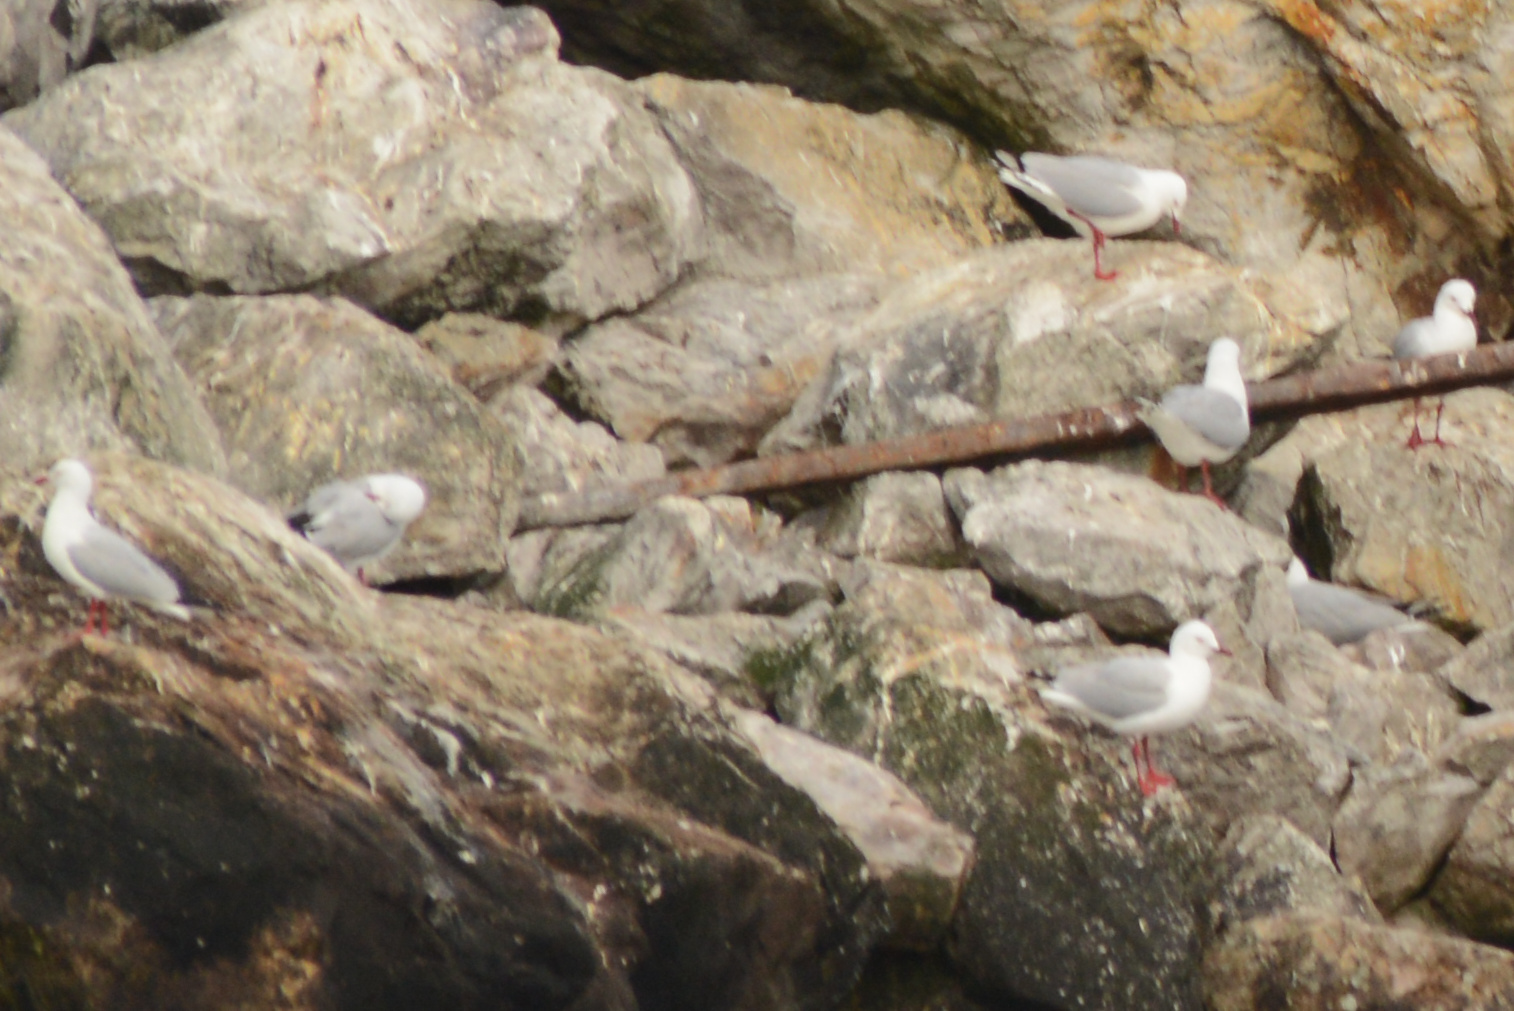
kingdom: Animalia
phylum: Chordata
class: Aves
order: Charadriiformes
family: Laridae
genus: Chroicocephalus
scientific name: Chroicocephalus novaehollandiae
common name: Silver gull
